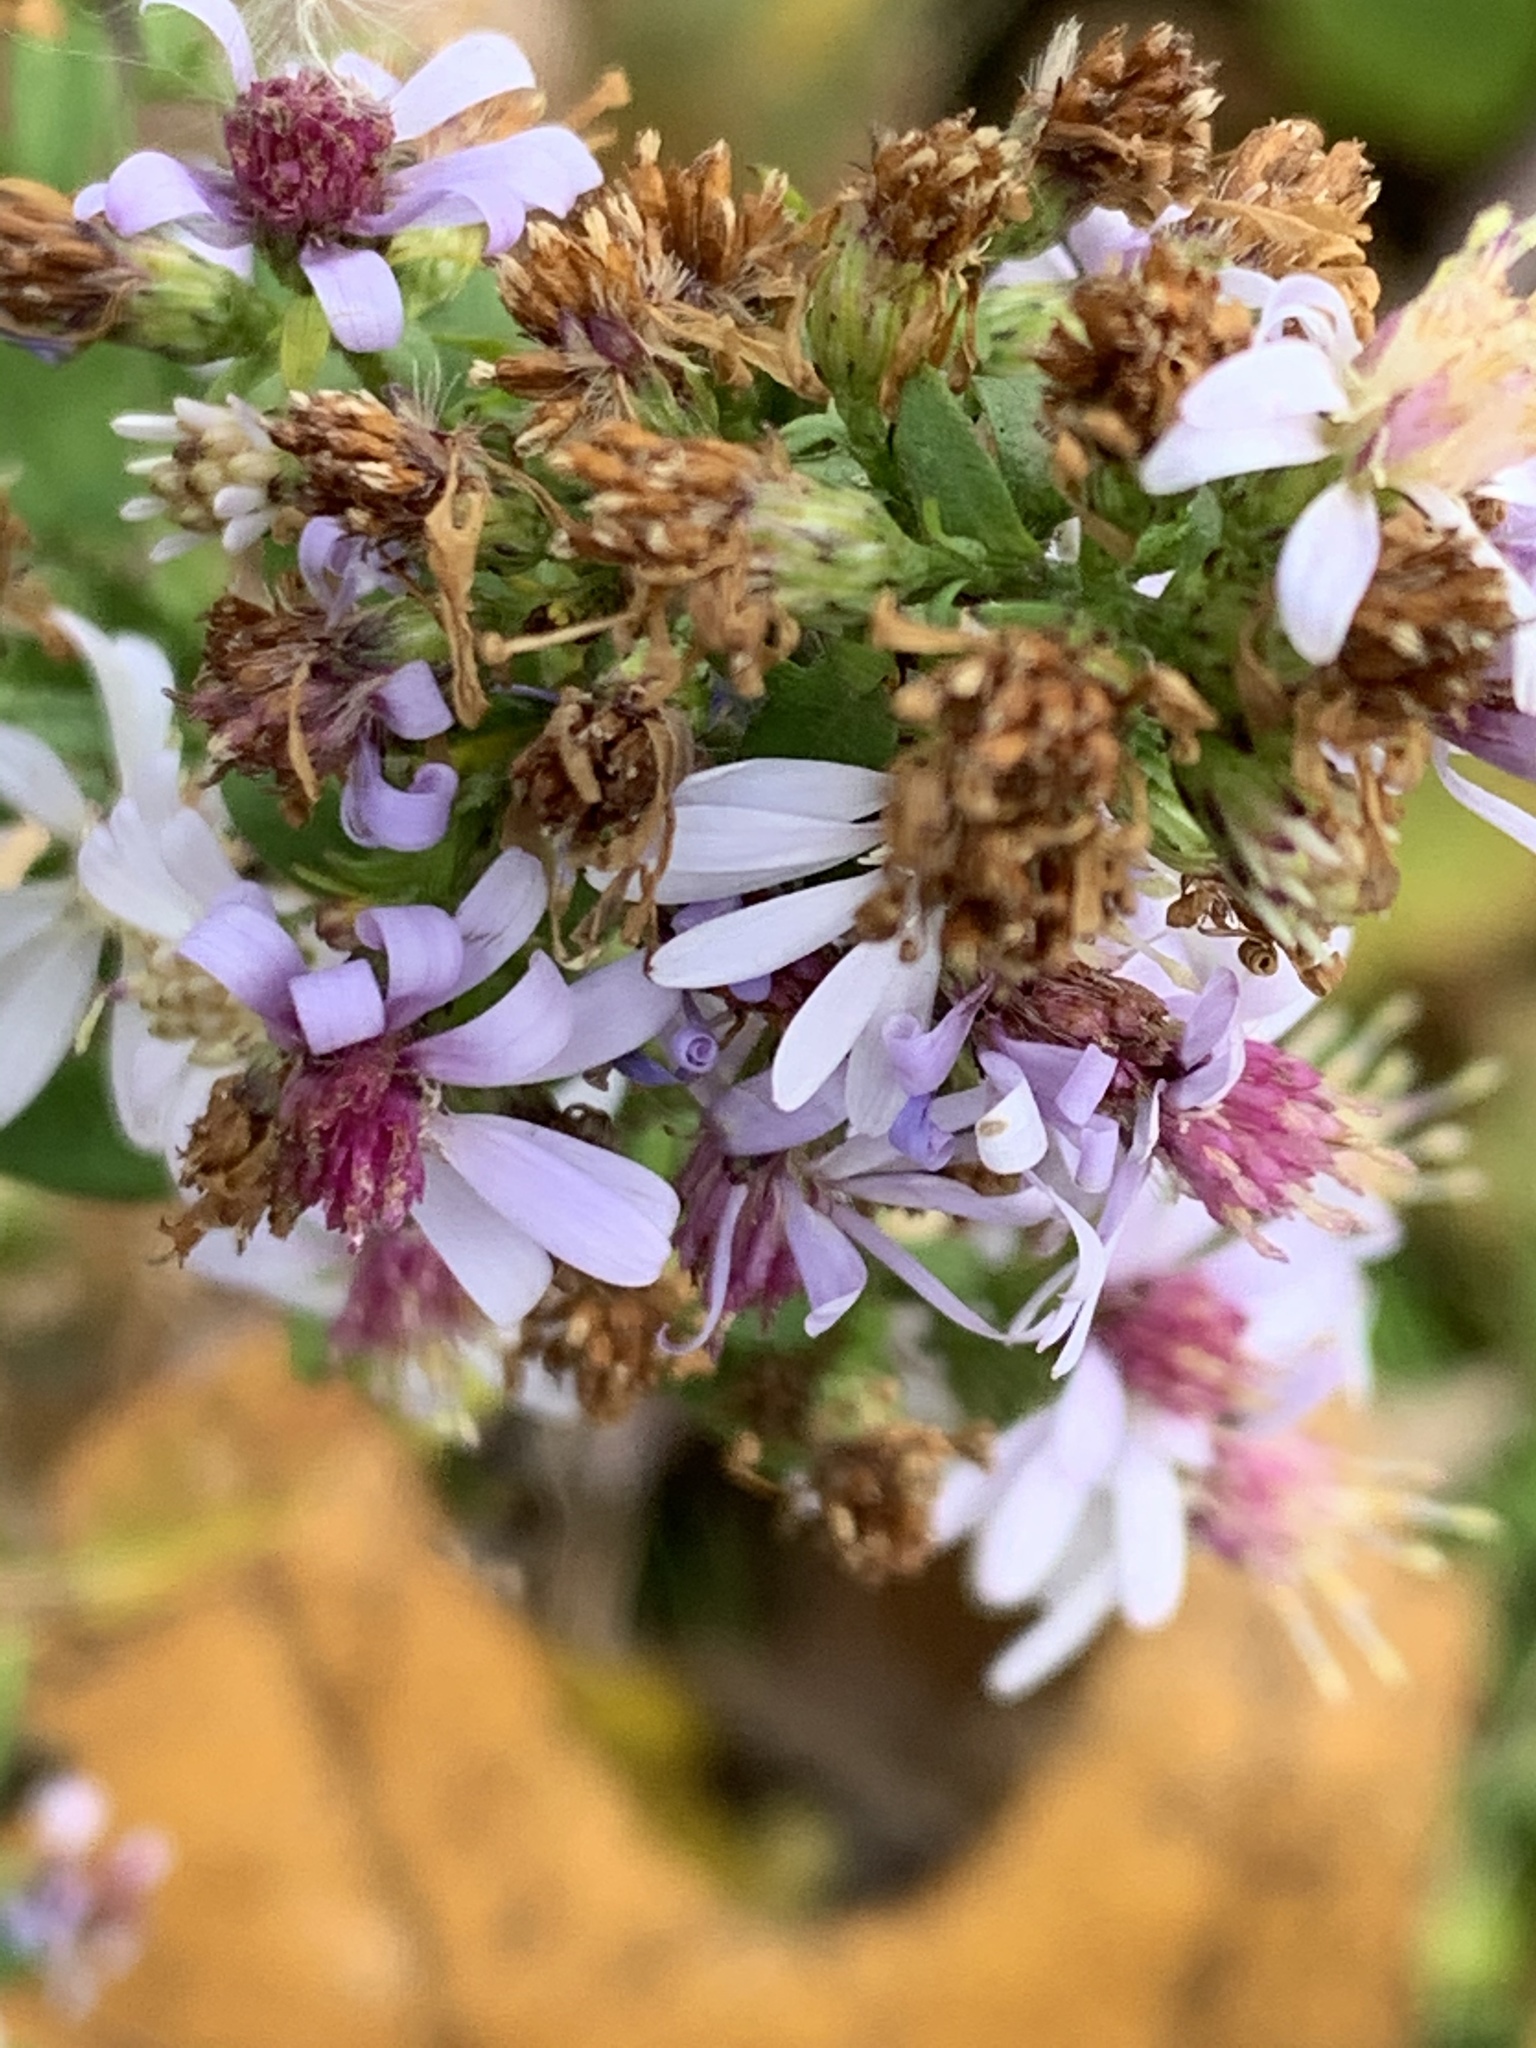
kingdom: Plantae
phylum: Tracheophyta
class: Magnoliopsida
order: Asterales
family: Asteraceae
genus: Symphyotrichum
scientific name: Symphyotrichum cordifolium
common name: Beeweed
